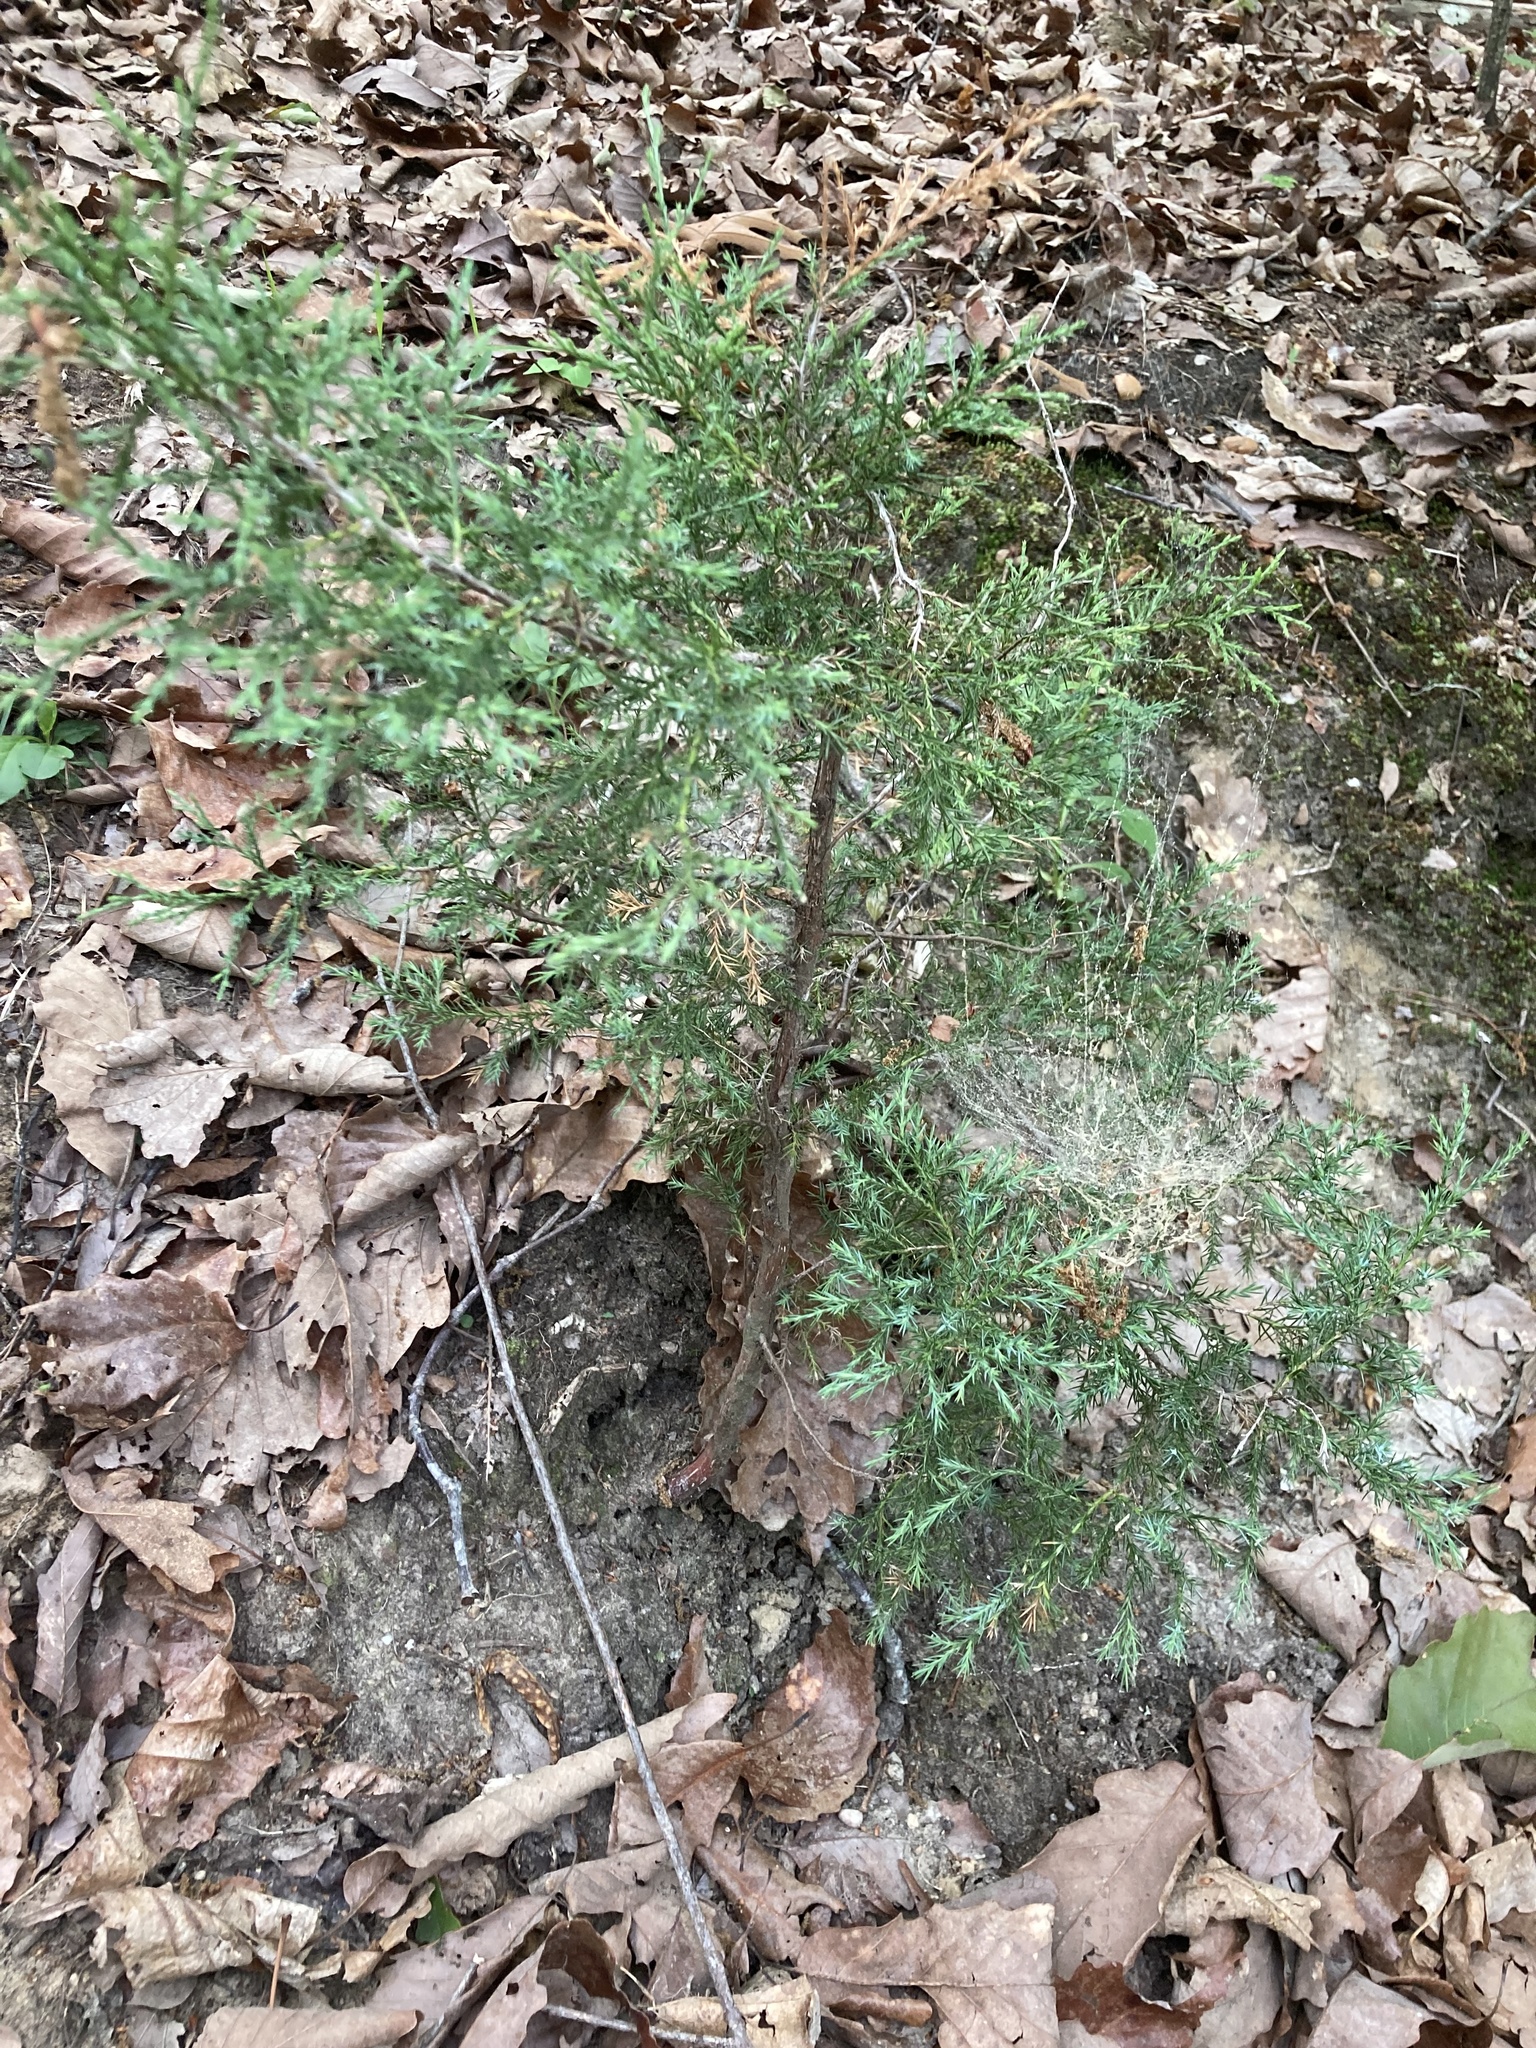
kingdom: Plantae
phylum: Tracheophyta
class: Pinopsida
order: Pinales
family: Cupressaceae
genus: Juniperus
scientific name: Juniperus virginiana
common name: Red juniper
